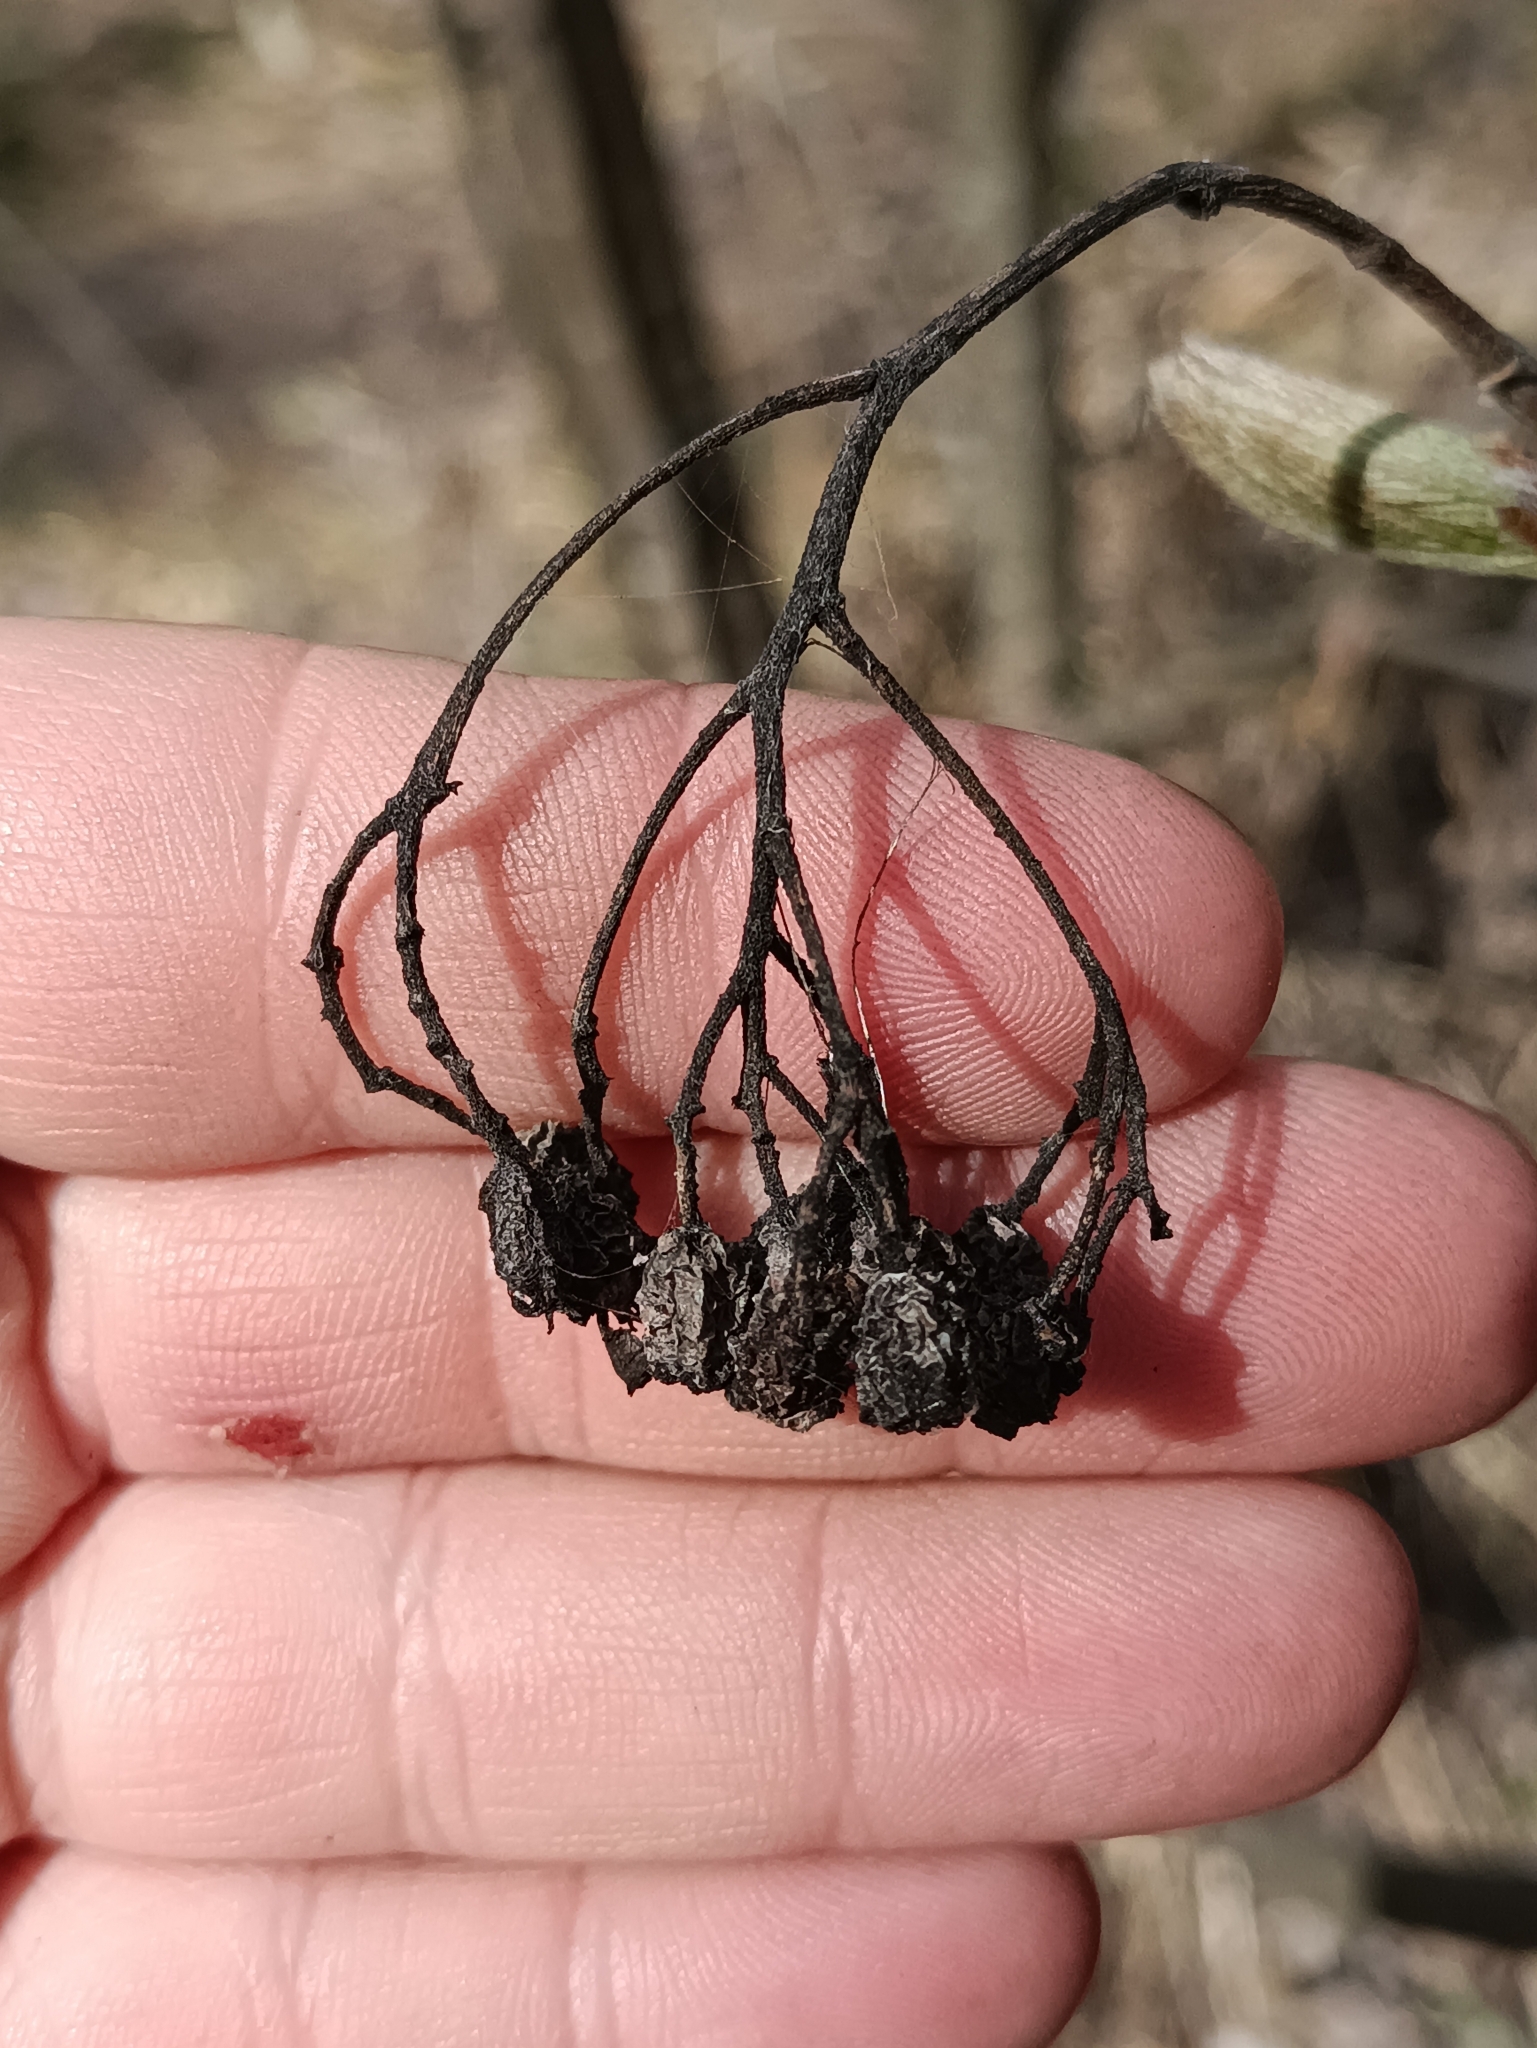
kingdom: Plantae
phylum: Tracheophyta
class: Magnoliopsida
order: Rosales
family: Rosaceae
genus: Sorbus
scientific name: Sorbus aucuparia
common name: Rowan
